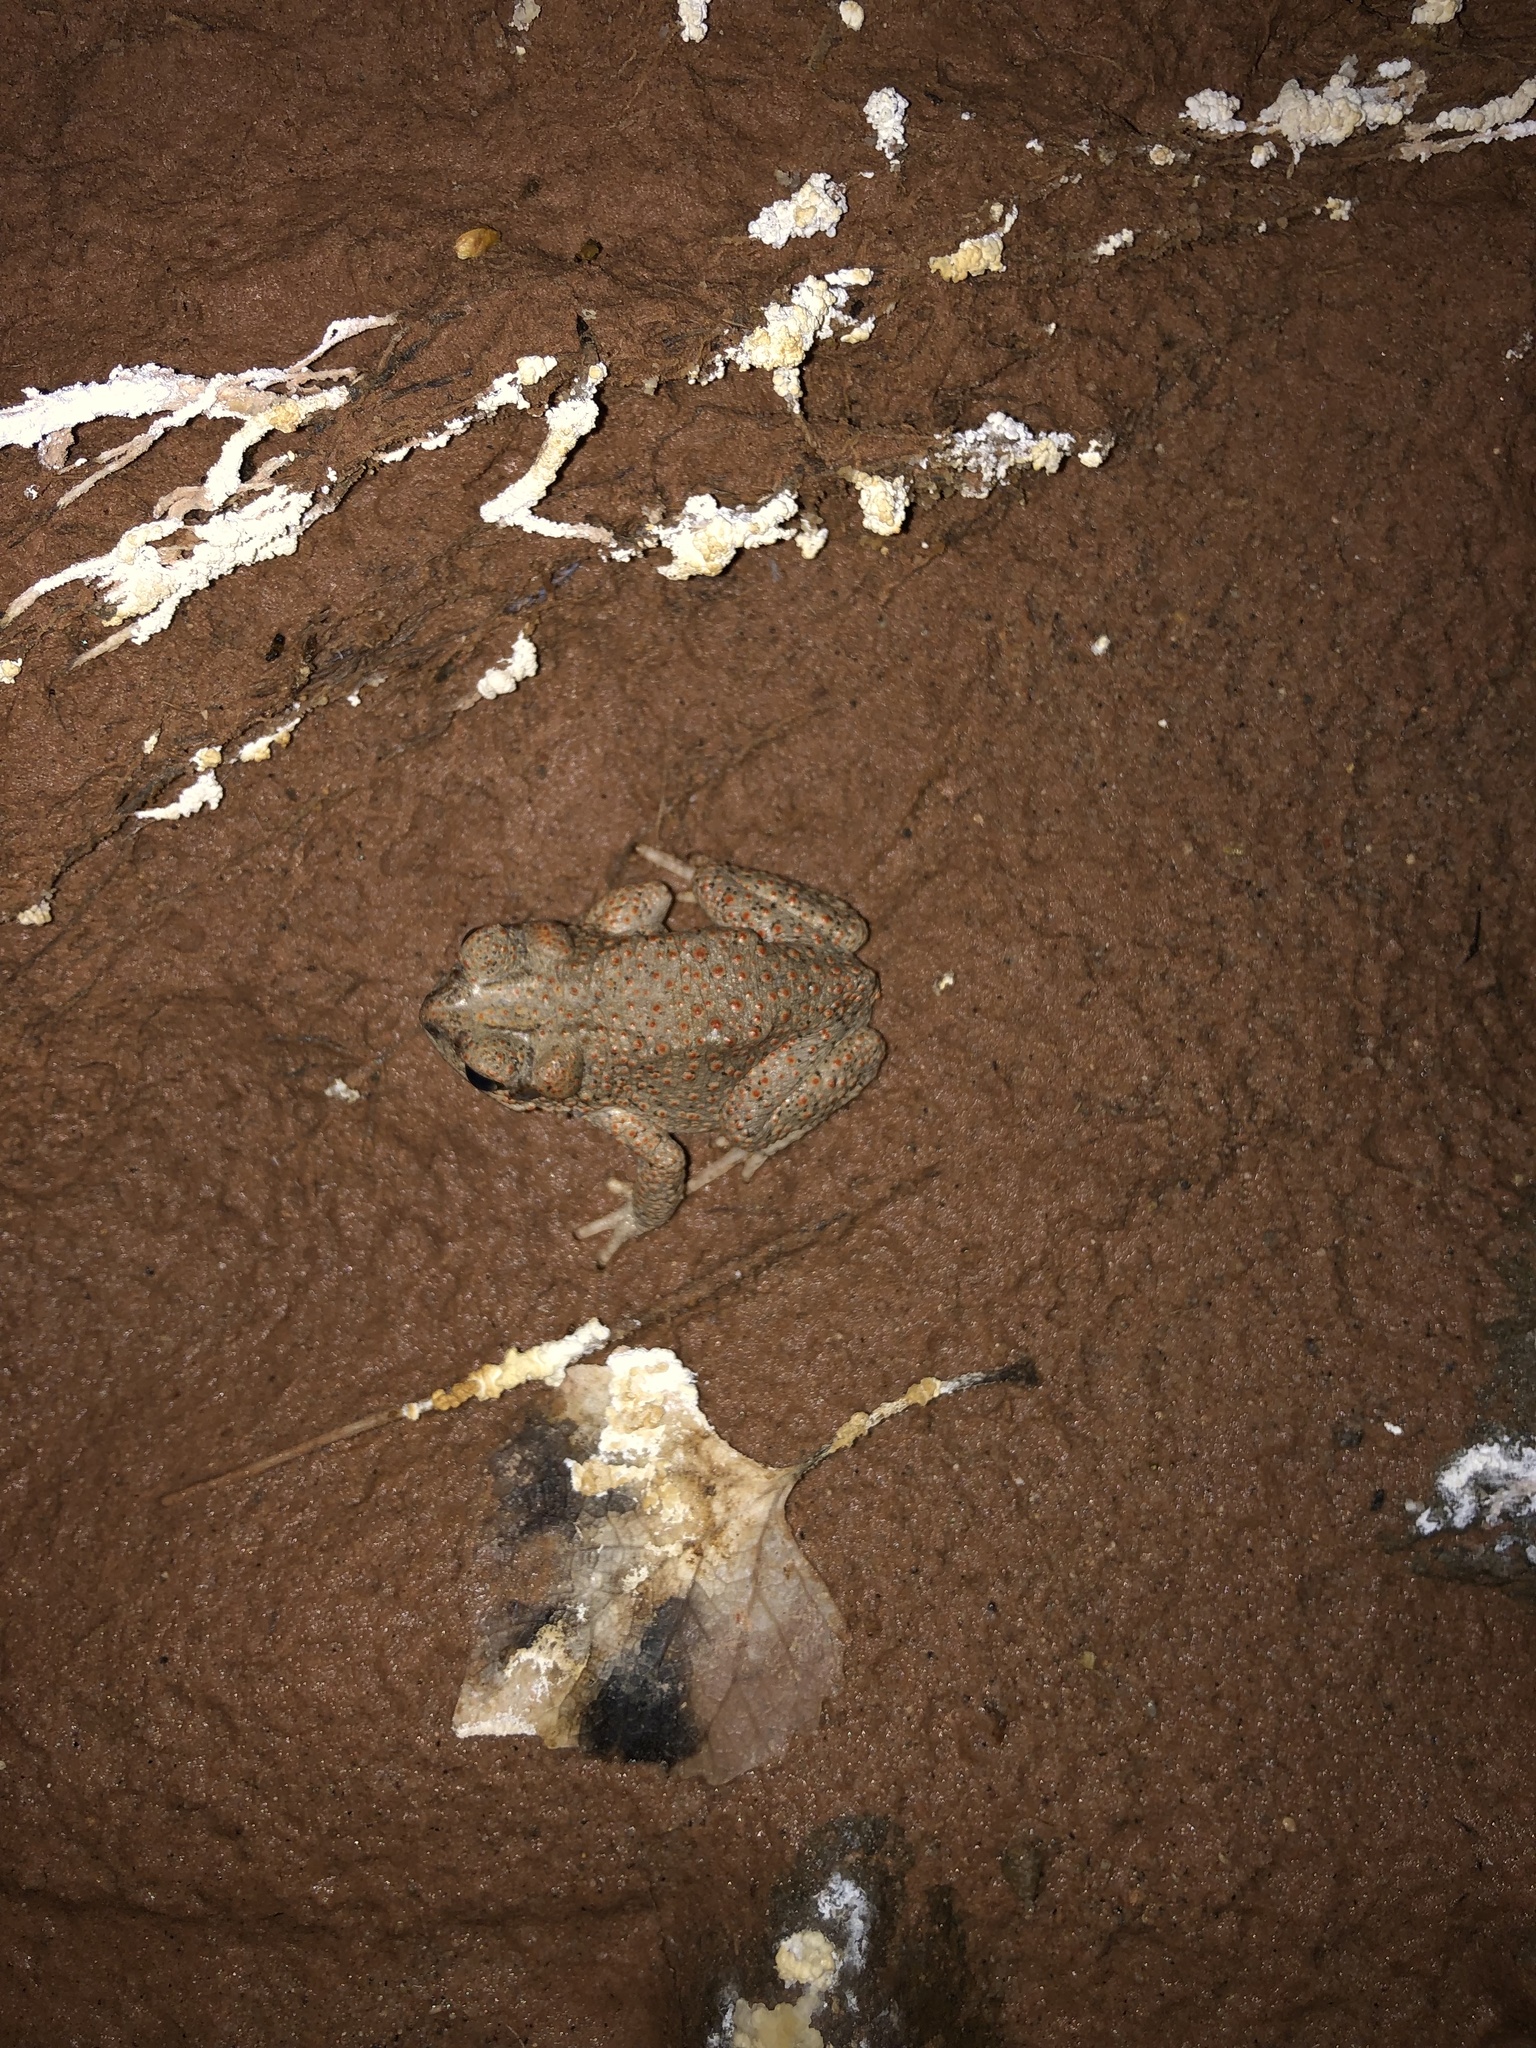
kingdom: Animalia
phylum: Chordata
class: Amphibia
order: Anura
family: Bufonidae
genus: Anaxyrus
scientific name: Anaxyrus punctatus
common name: Red-spotted toad
